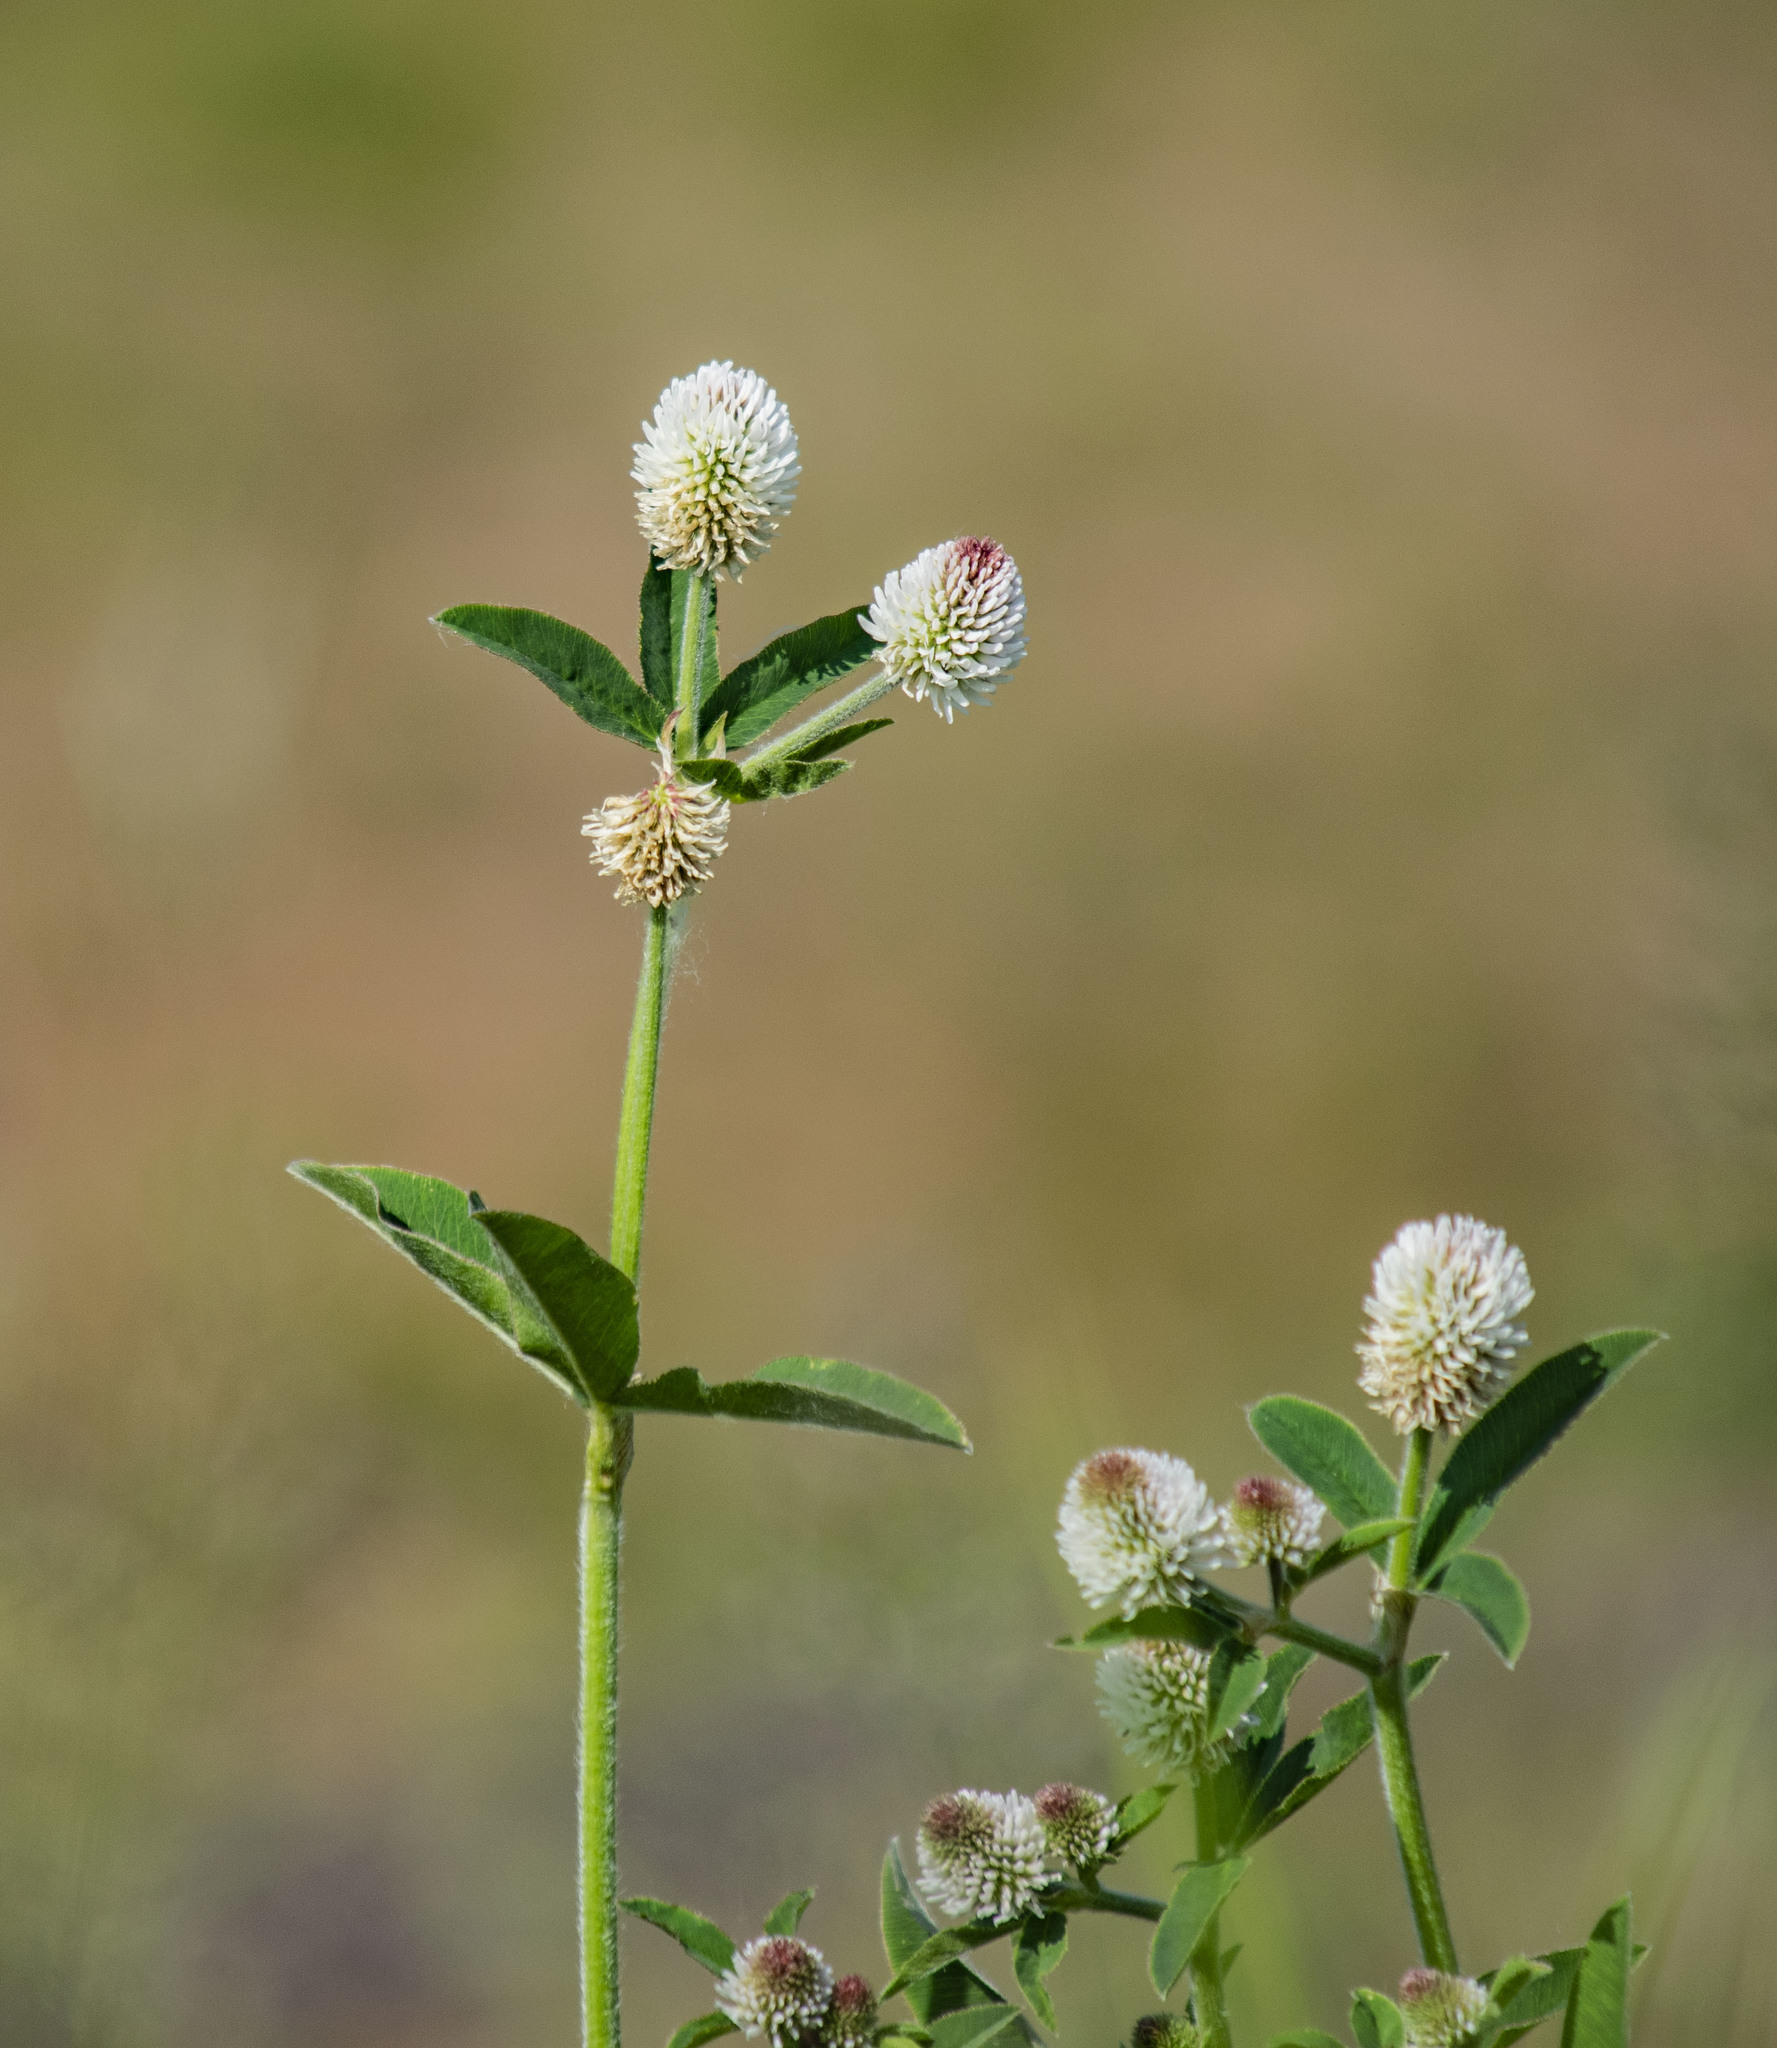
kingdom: Plantae
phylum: Tracheophyta
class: Magnoliopsida
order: Fabales
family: Fabaceae
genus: Trifolium
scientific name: Trifolium montanum
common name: Mountain clover
